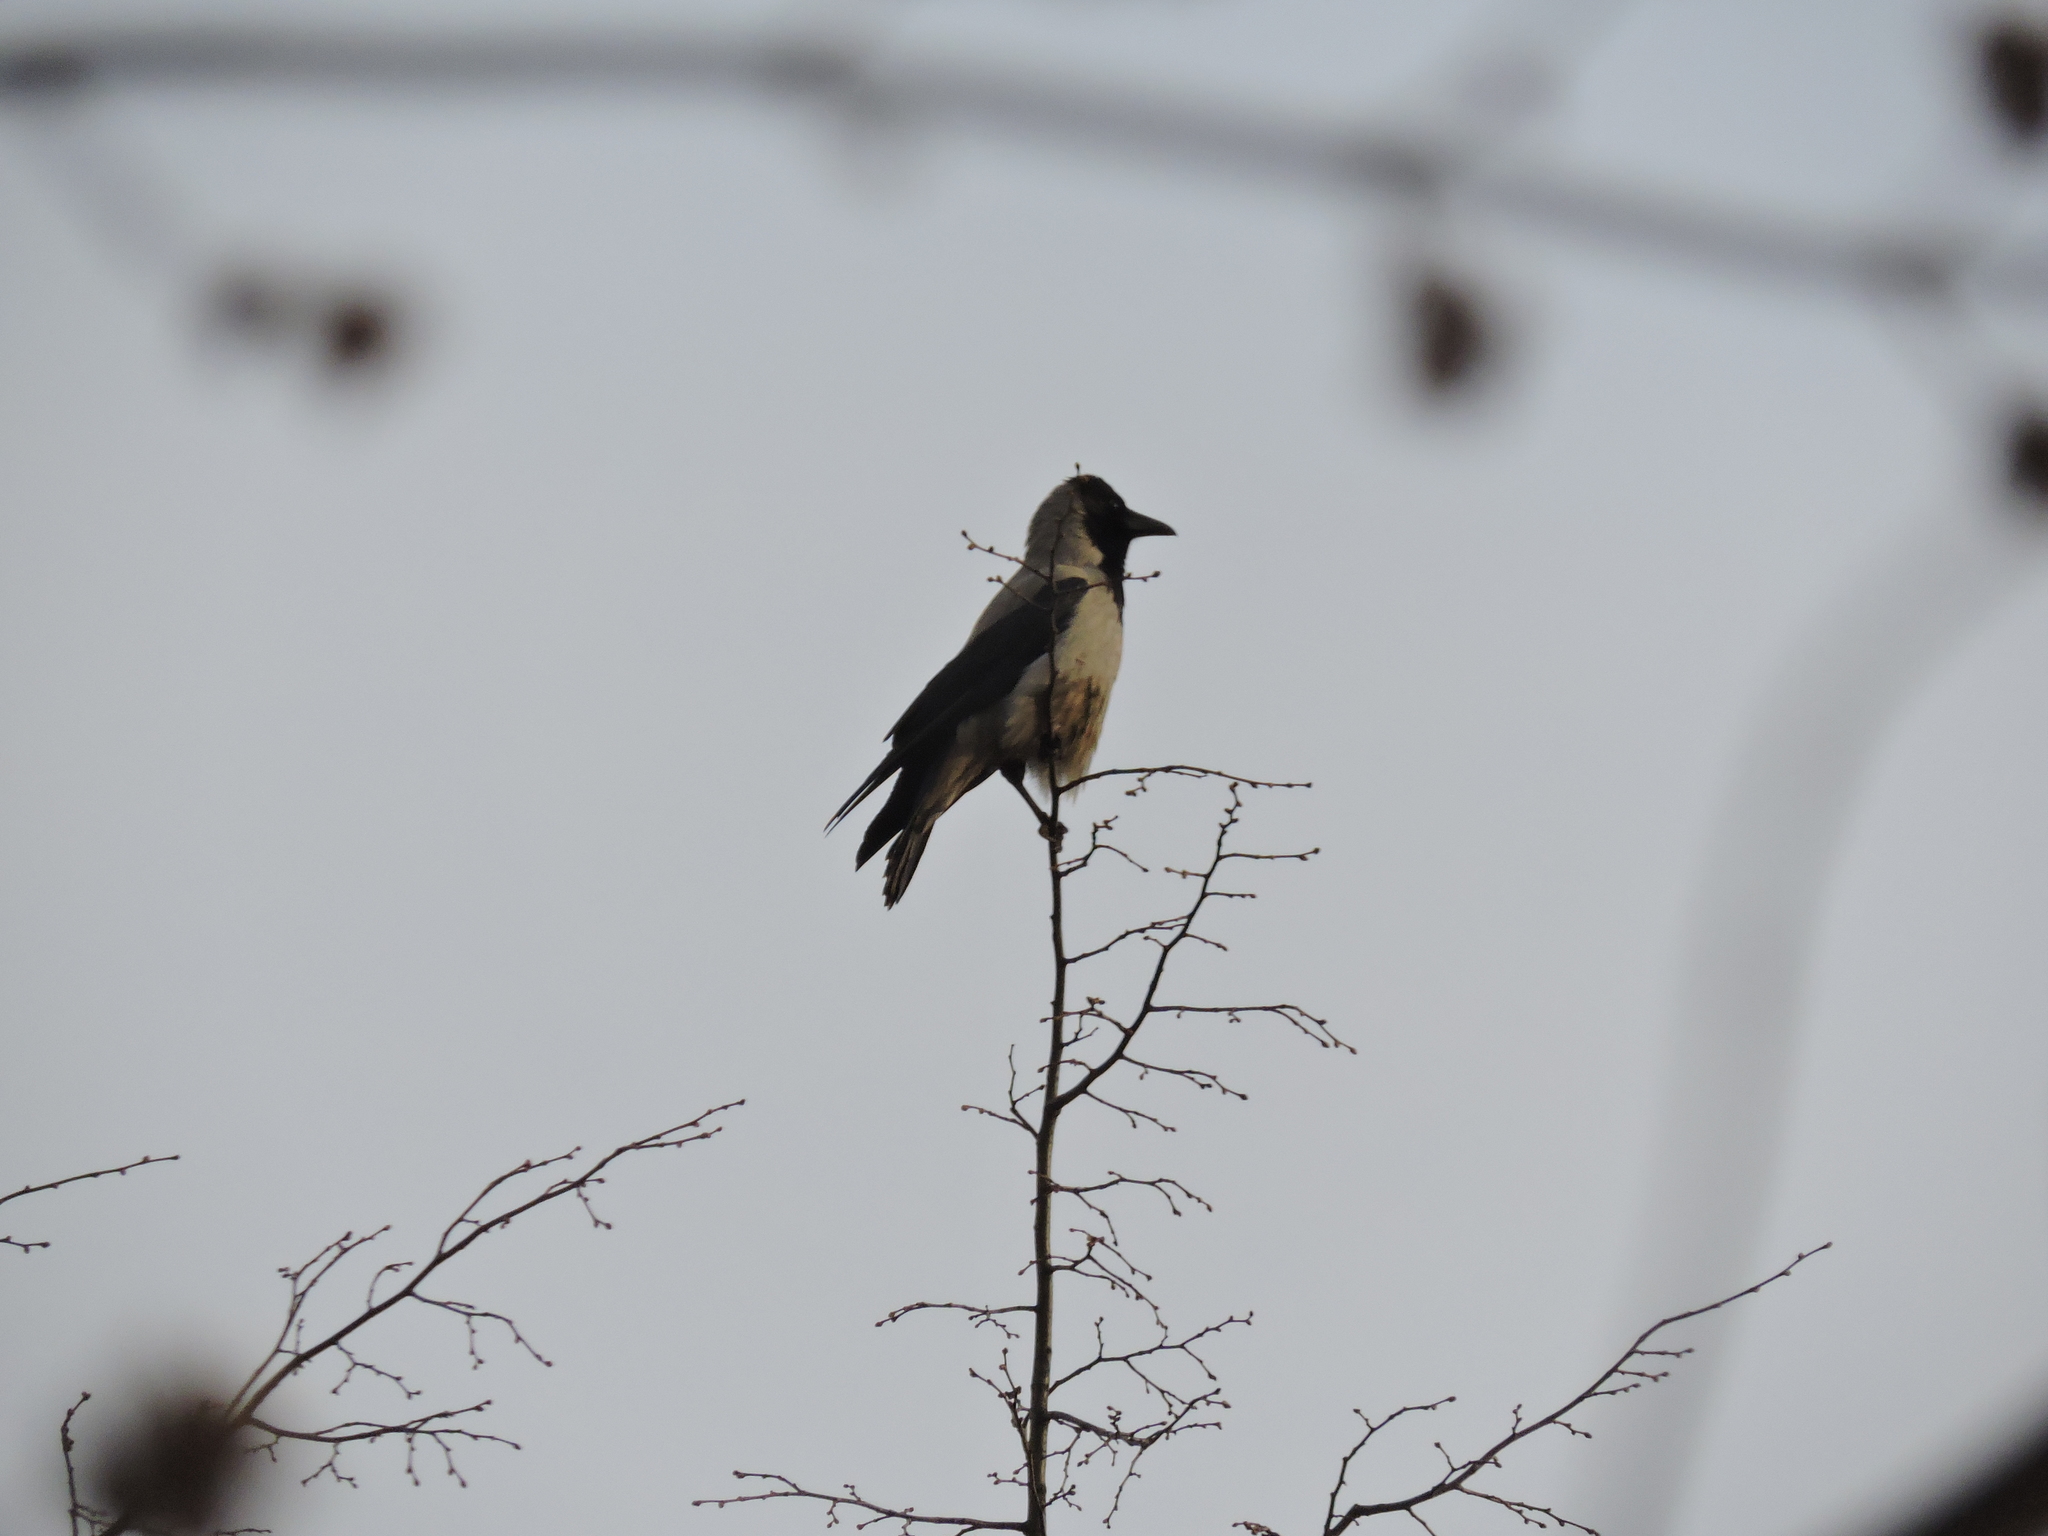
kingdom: Animalia
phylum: Chordata
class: Aves
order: Passeriformes
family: Corvidae
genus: Corvus
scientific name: Corvus cornix
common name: Hooded crow
